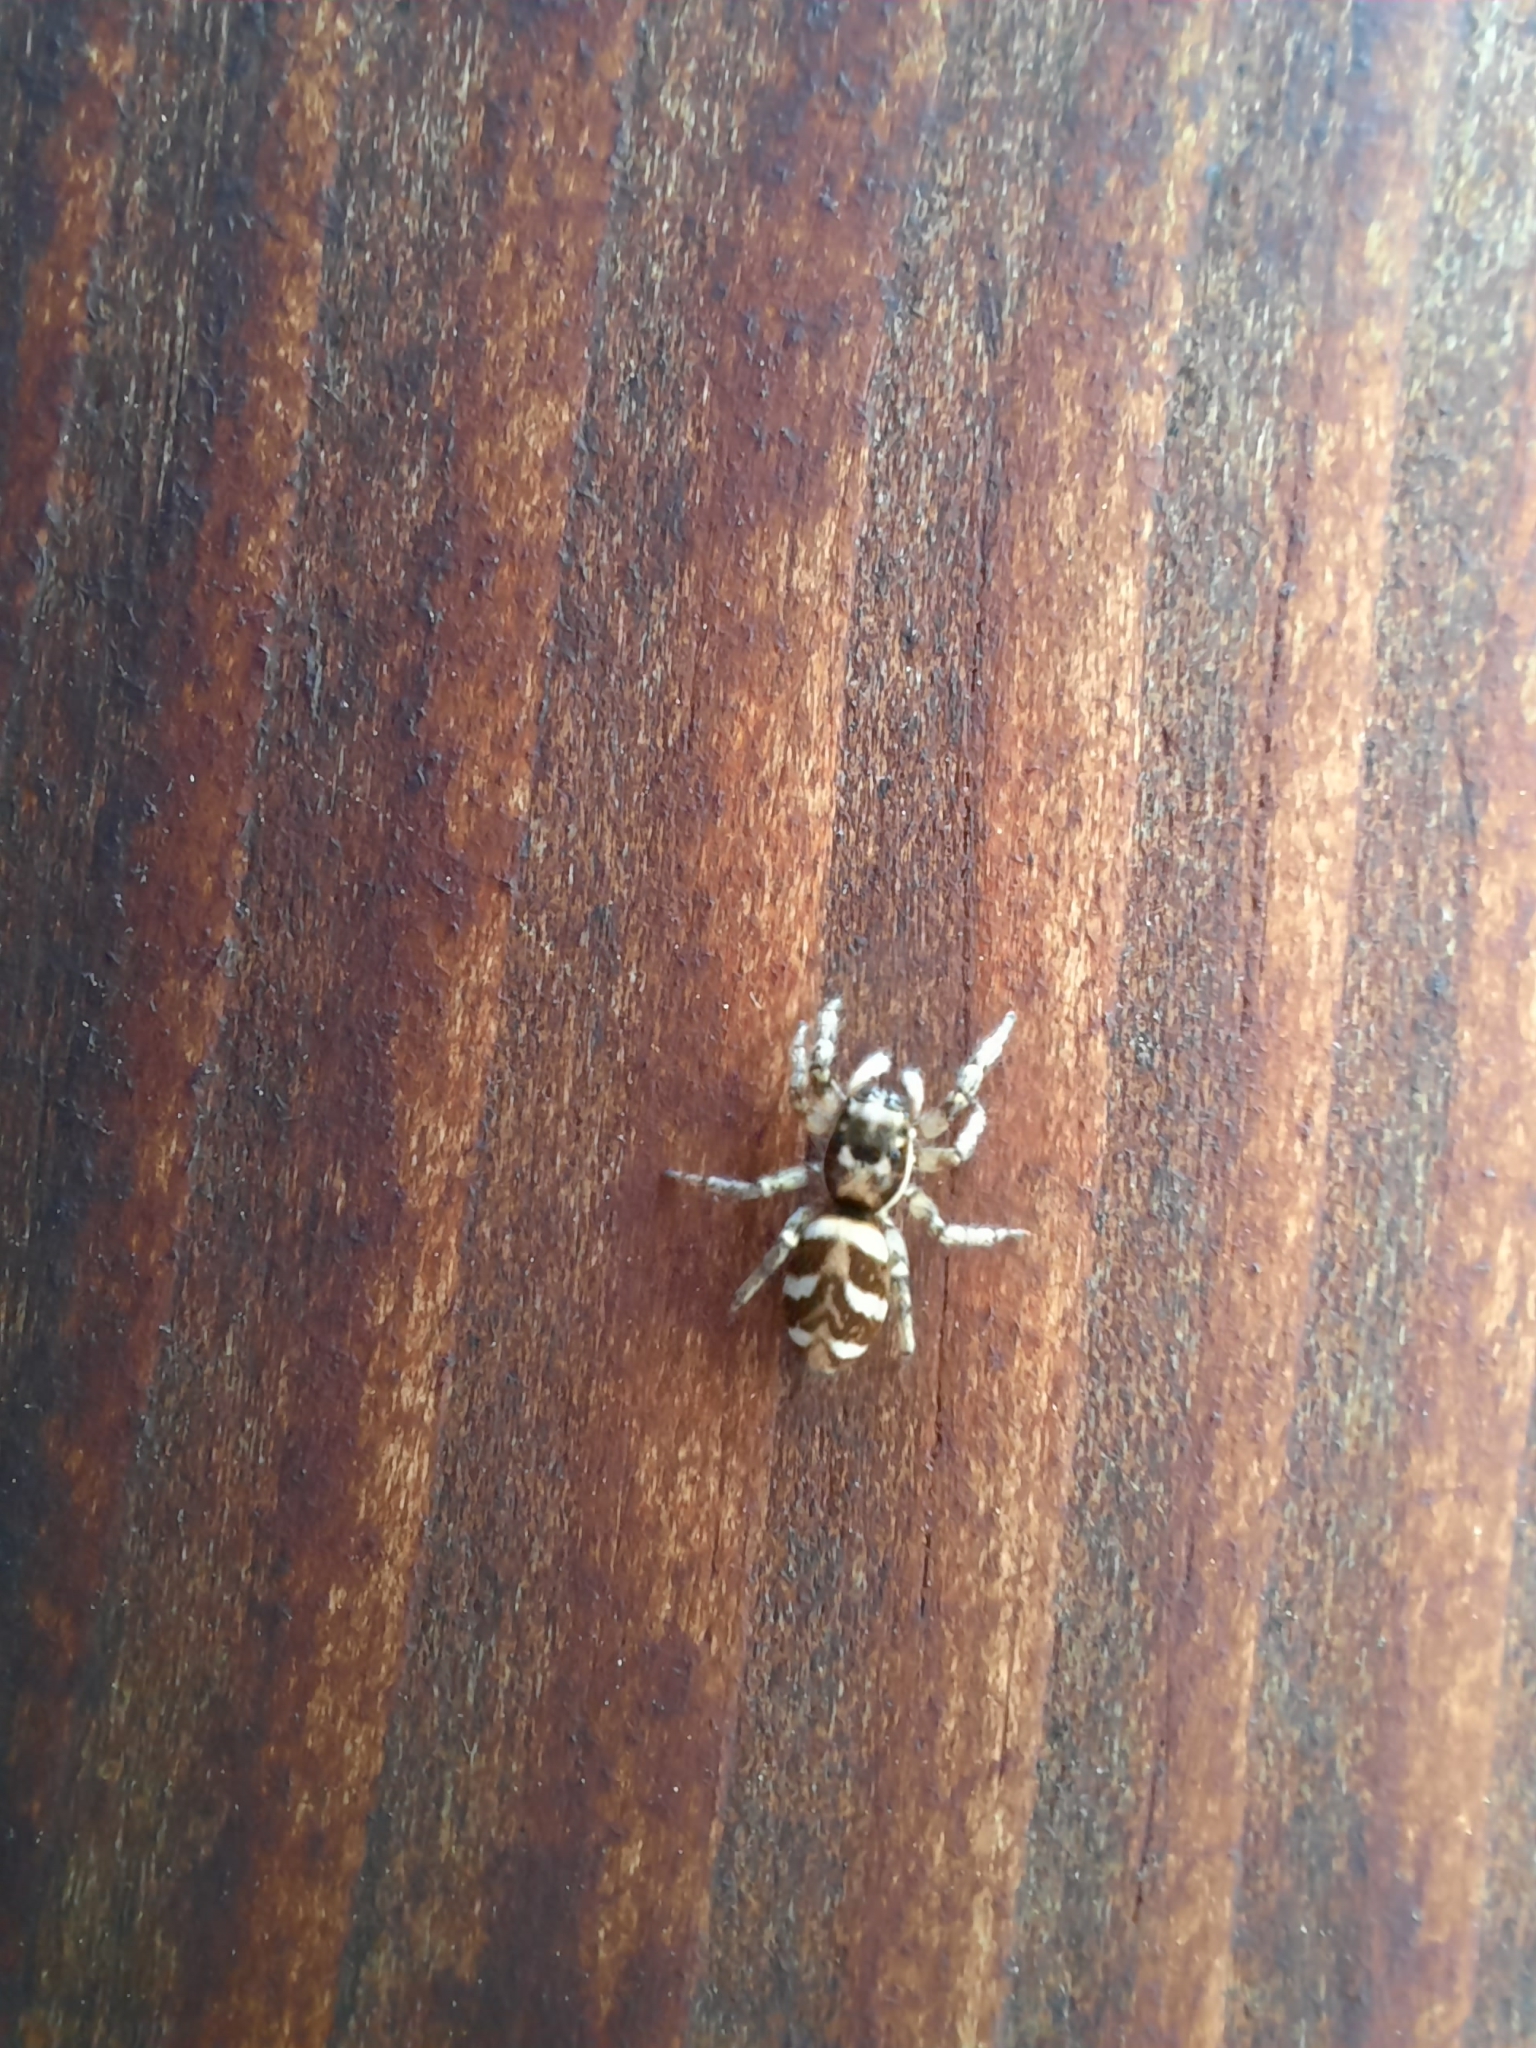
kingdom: Animalia
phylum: Arthropoda
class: Arachnida
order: Araneae
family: Salticidae
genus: Salticus
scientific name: Salticus scenicus
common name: Zebra jumper
